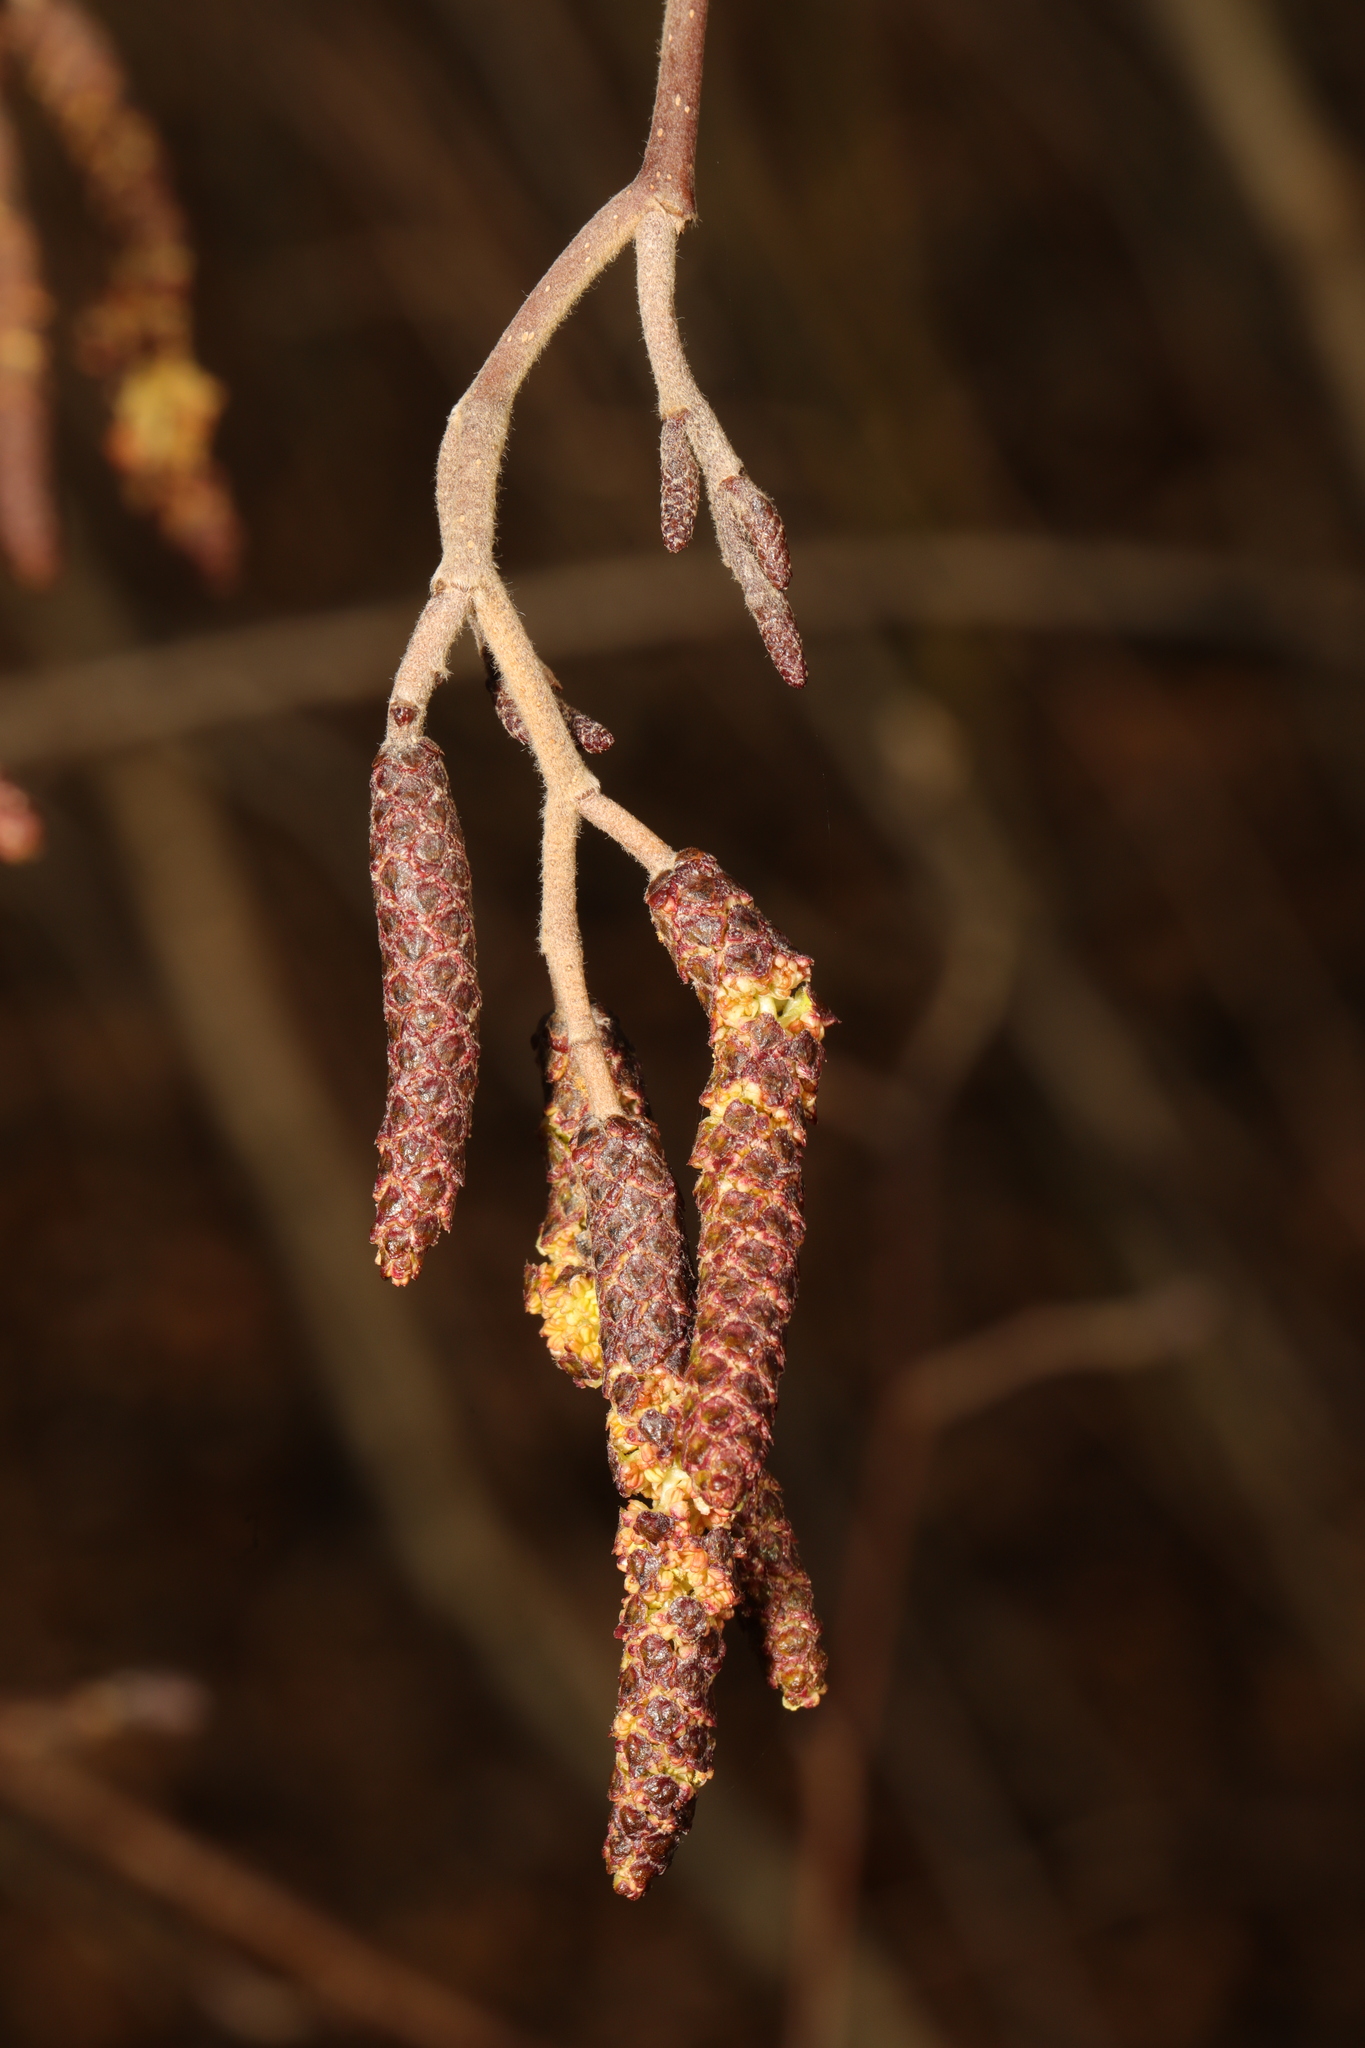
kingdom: Plantae
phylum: Tracheophyta
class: Magnoliopsida
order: Fagales
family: Betulaceae
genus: Alnus
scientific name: Alnus glutinosa
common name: Black alder
